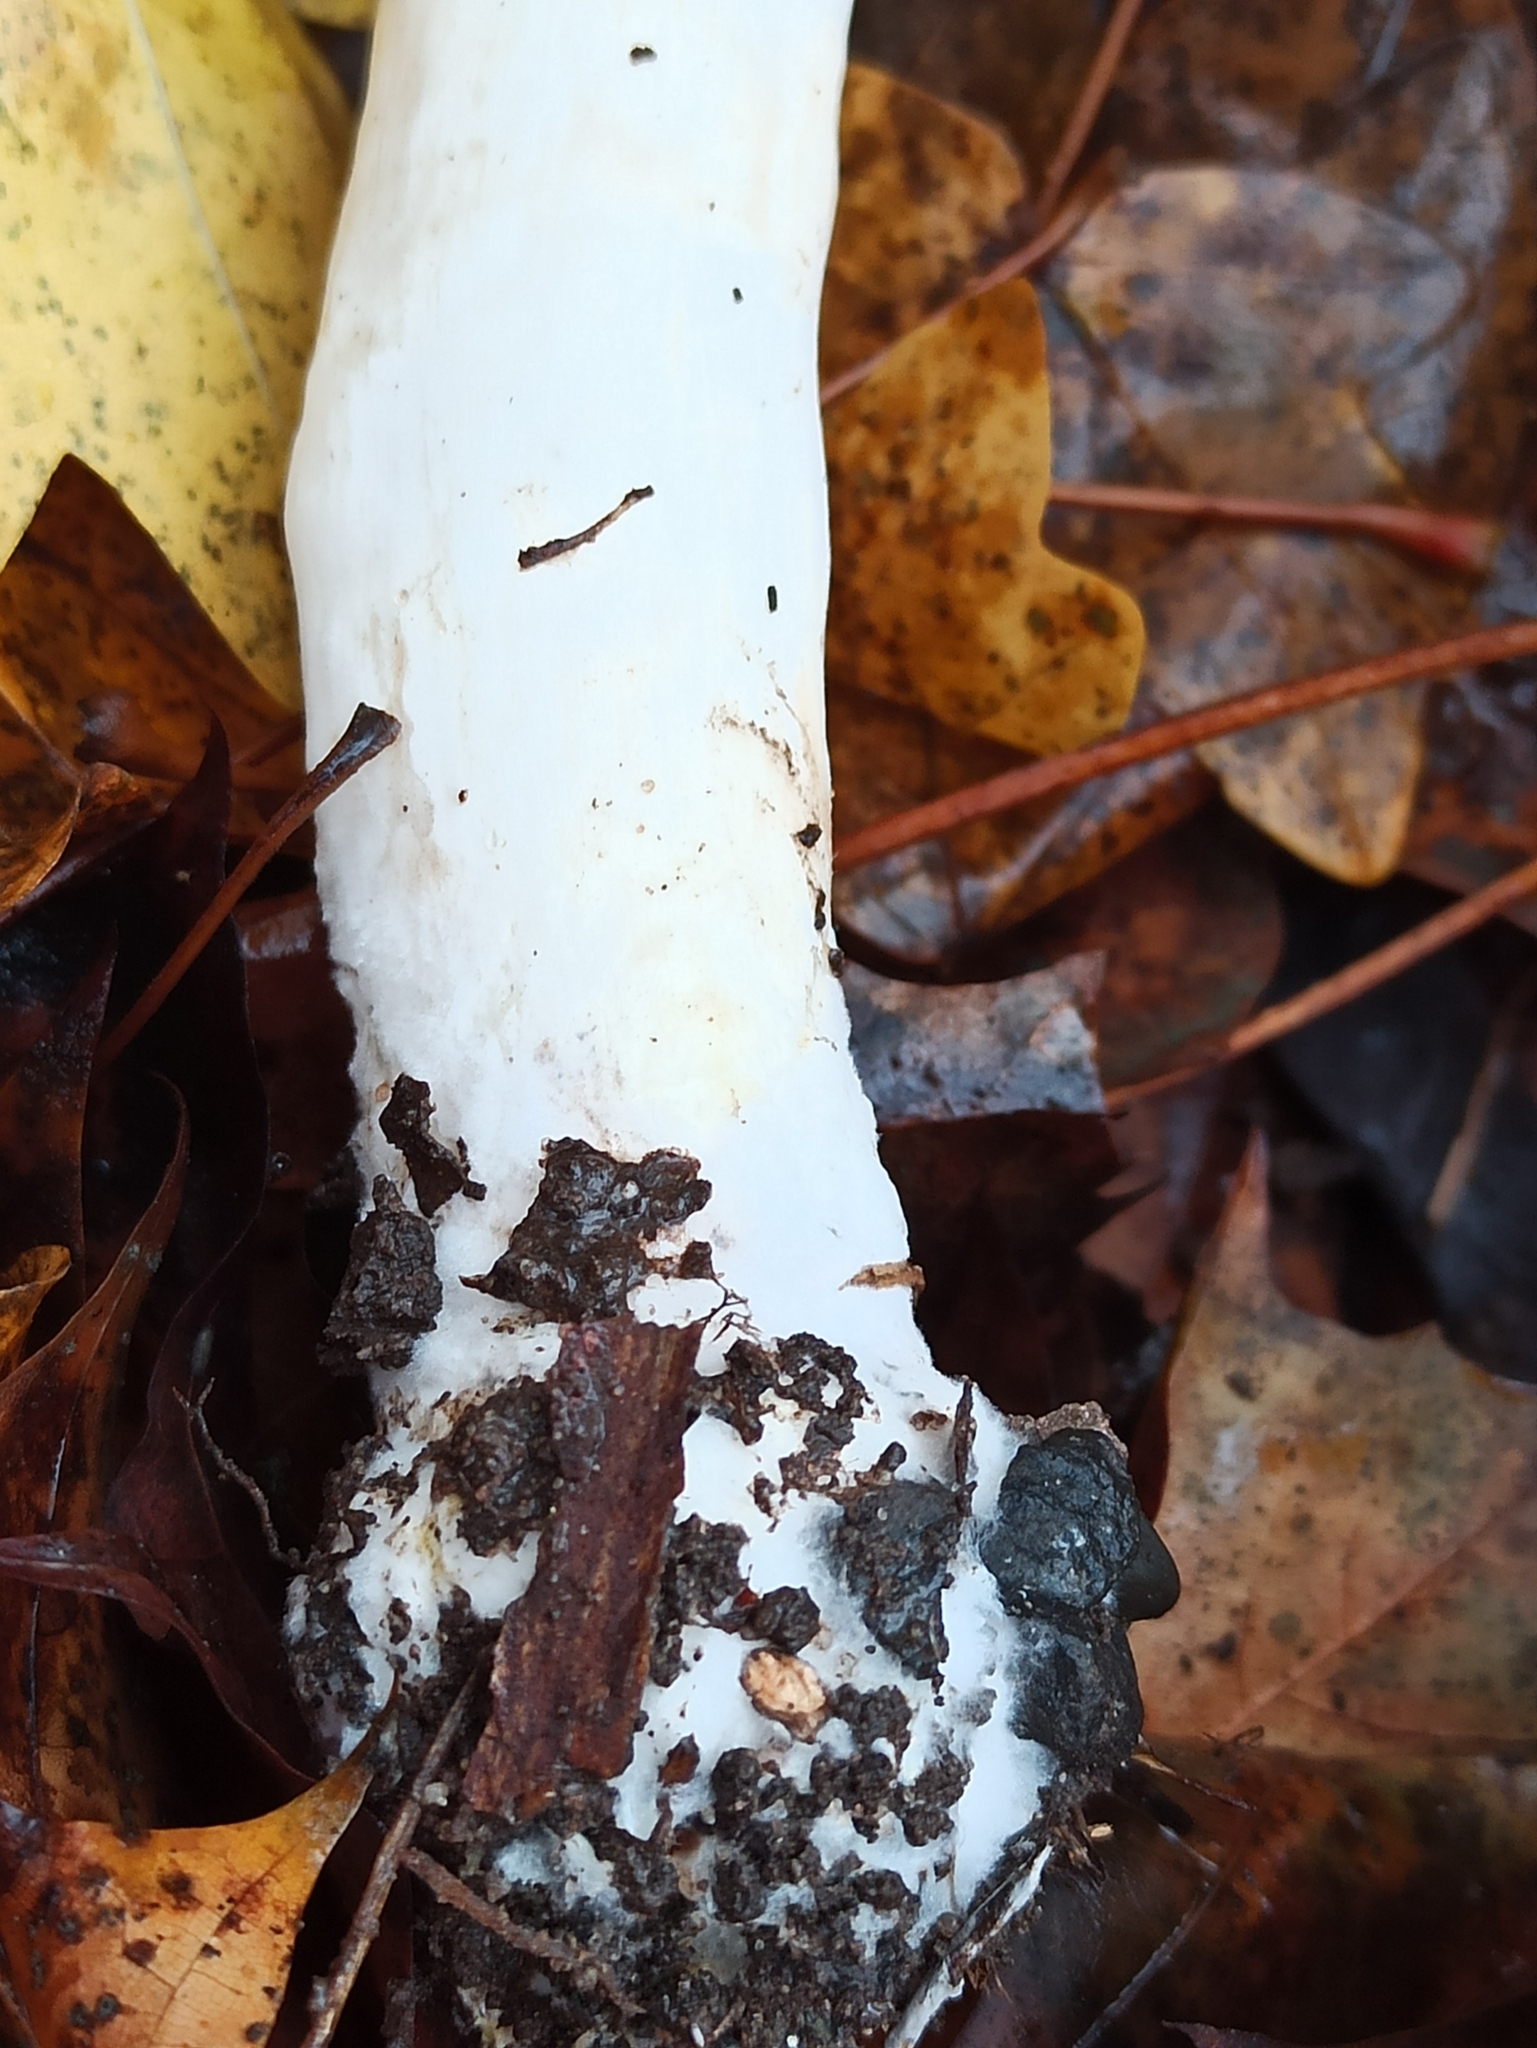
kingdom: Fungi
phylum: Basidiomycota
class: Agaricomycetes
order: Agaricales
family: Agaricaceae
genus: Leucoagaricus
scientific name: Leucoagaricus leucothites
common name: White dapperling
